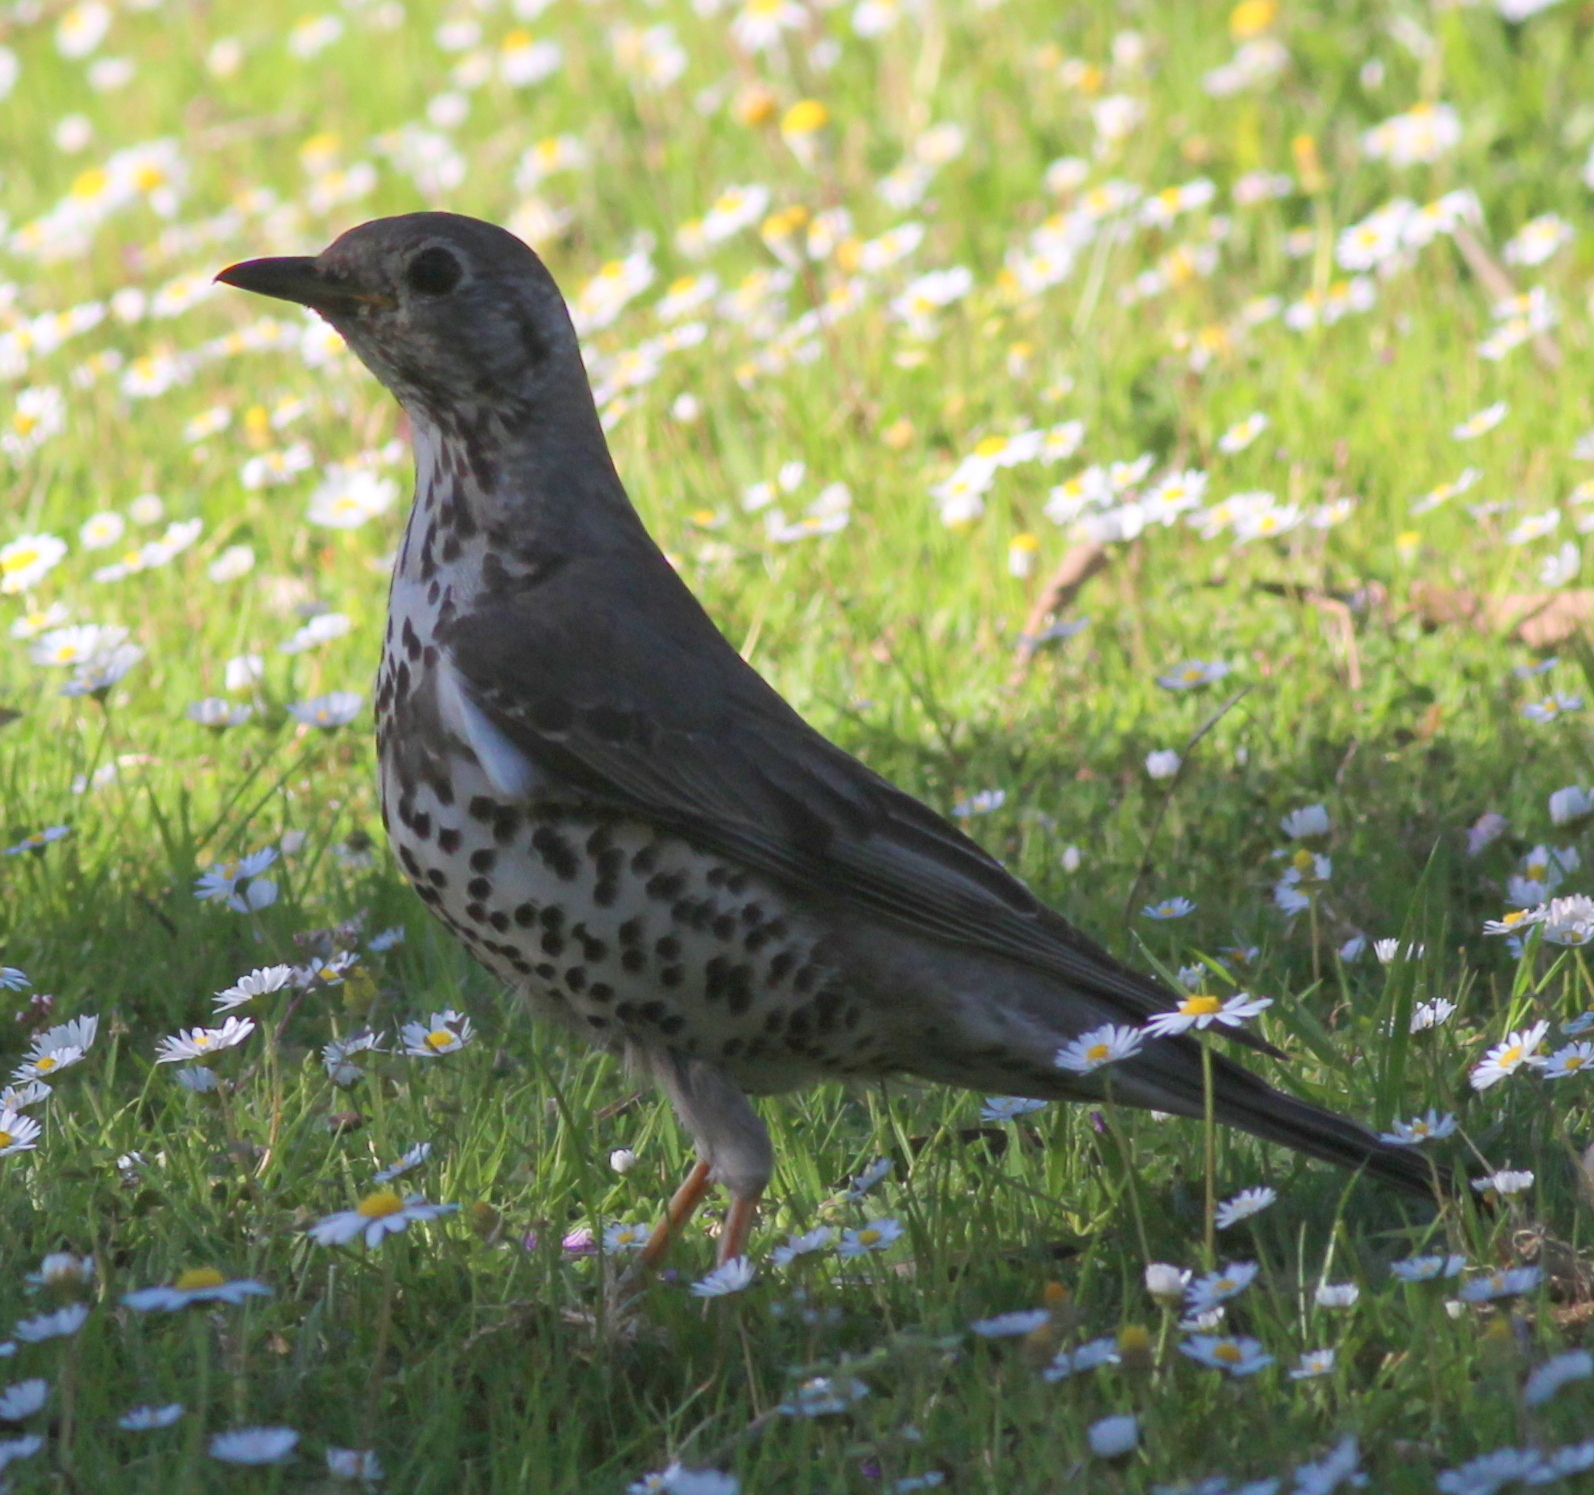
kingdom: Animalia
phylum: Chordata
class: Aves
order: Passeriformes
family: Turdidae
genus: Turdus
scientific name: Turdus viscivorus
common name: Mistle thrush
